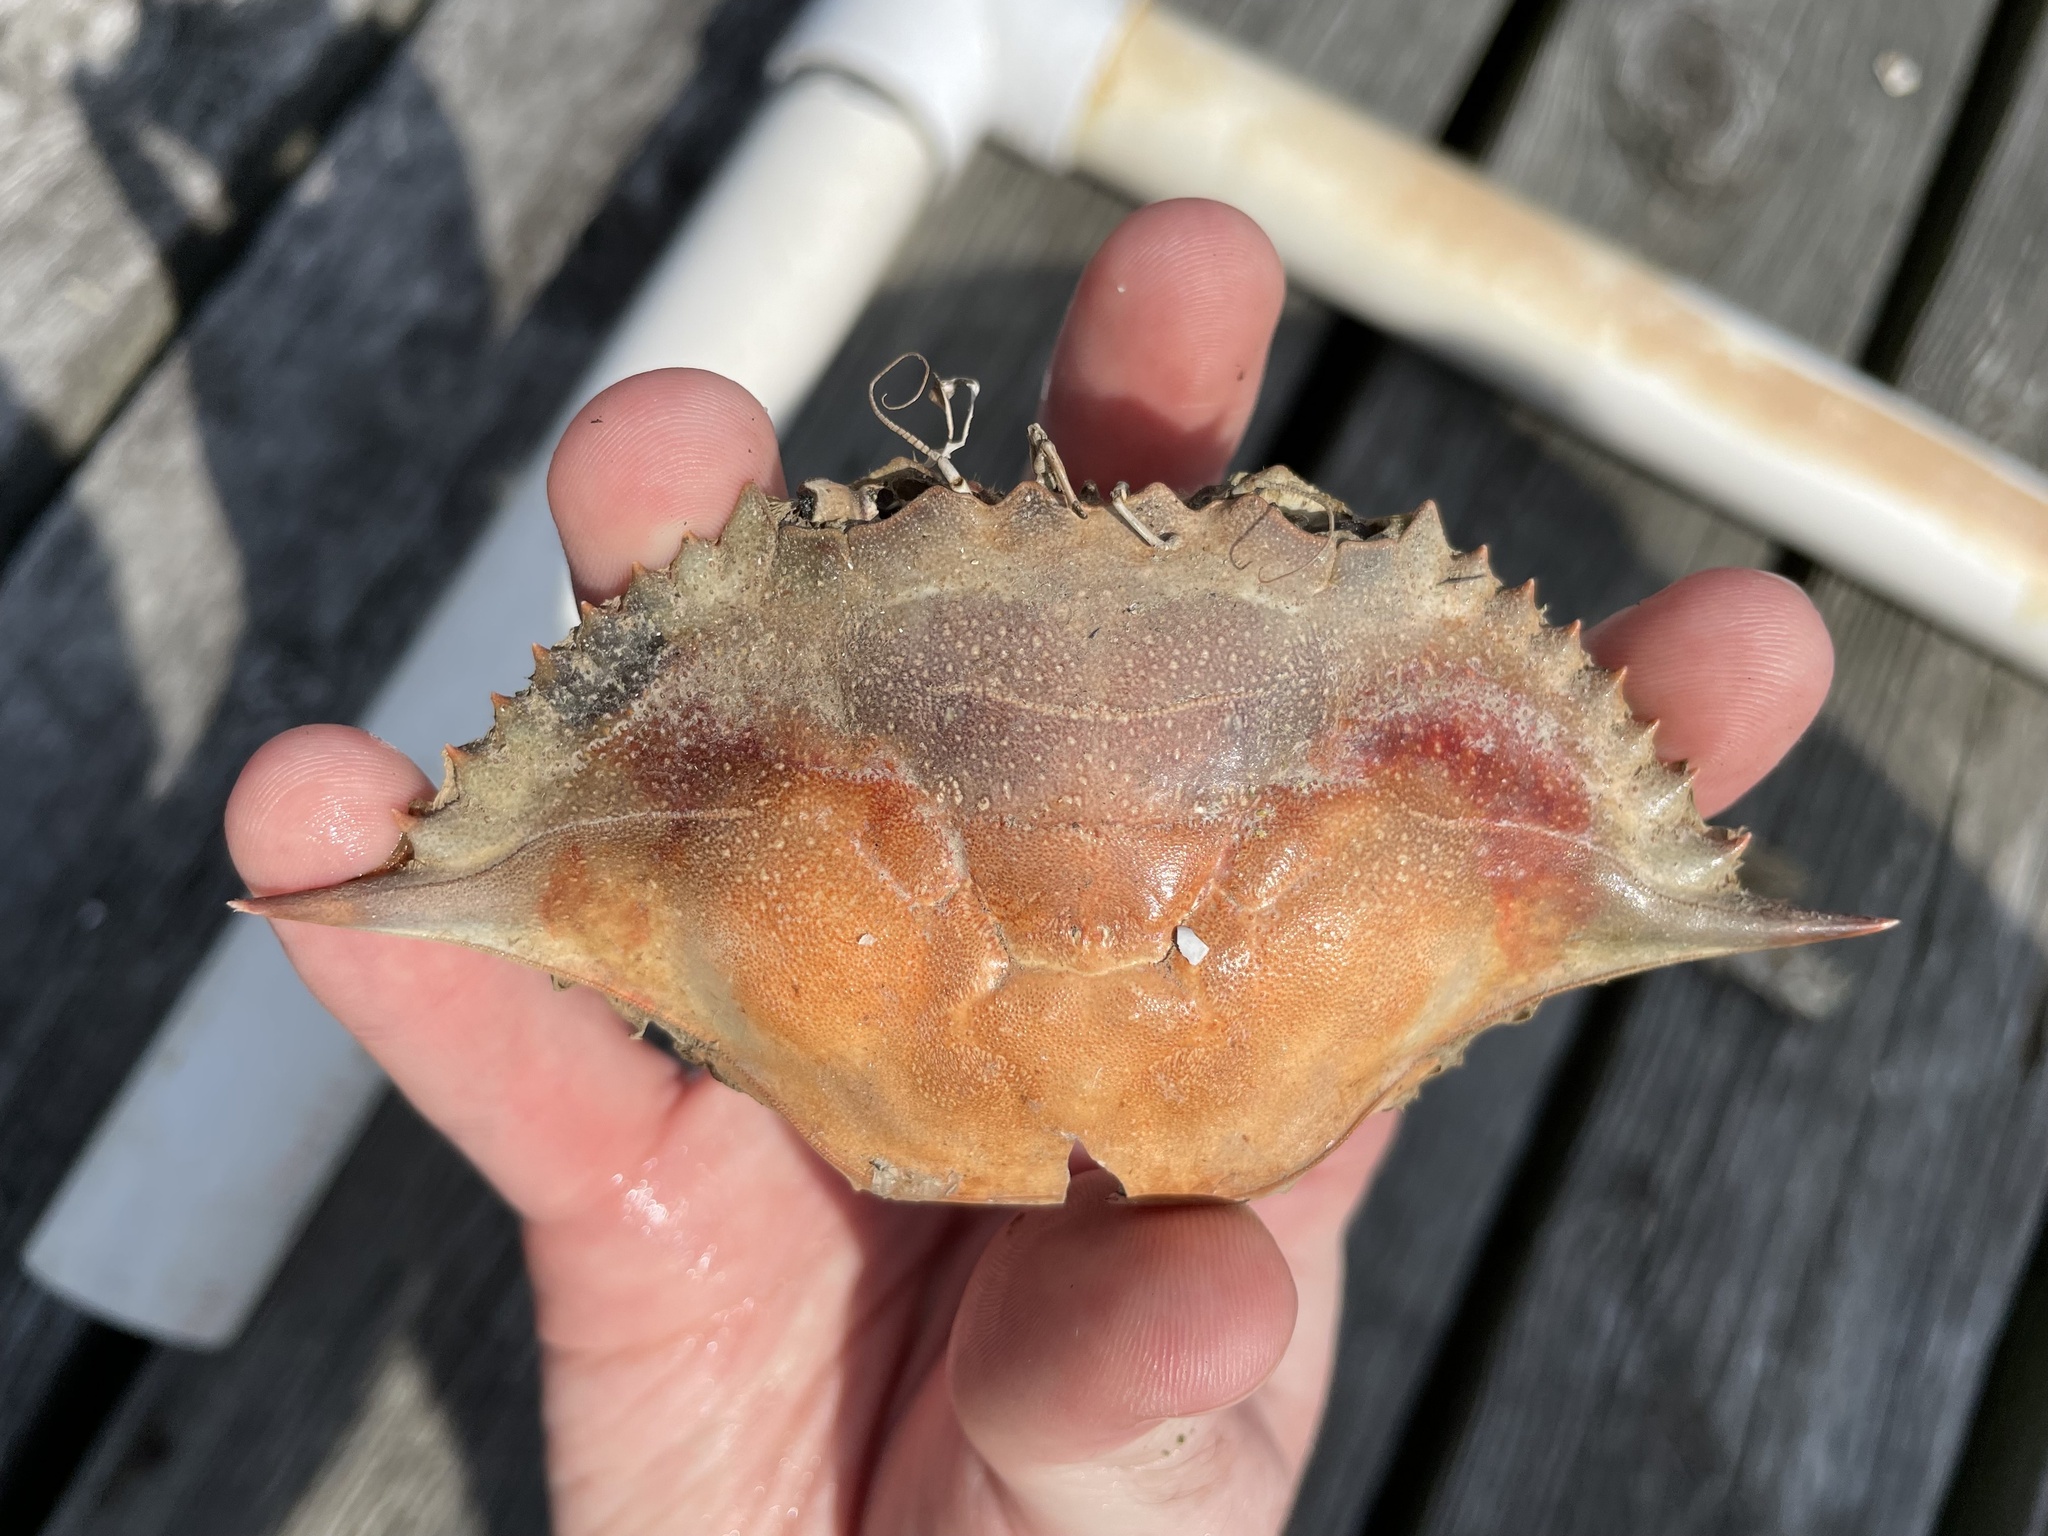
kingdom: Animalia
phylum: Arthropoda
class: Malacostraca
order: Decapoda
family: Portunidae
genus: Callinectes
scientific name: Callinectes sapidus
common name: Blue crab
